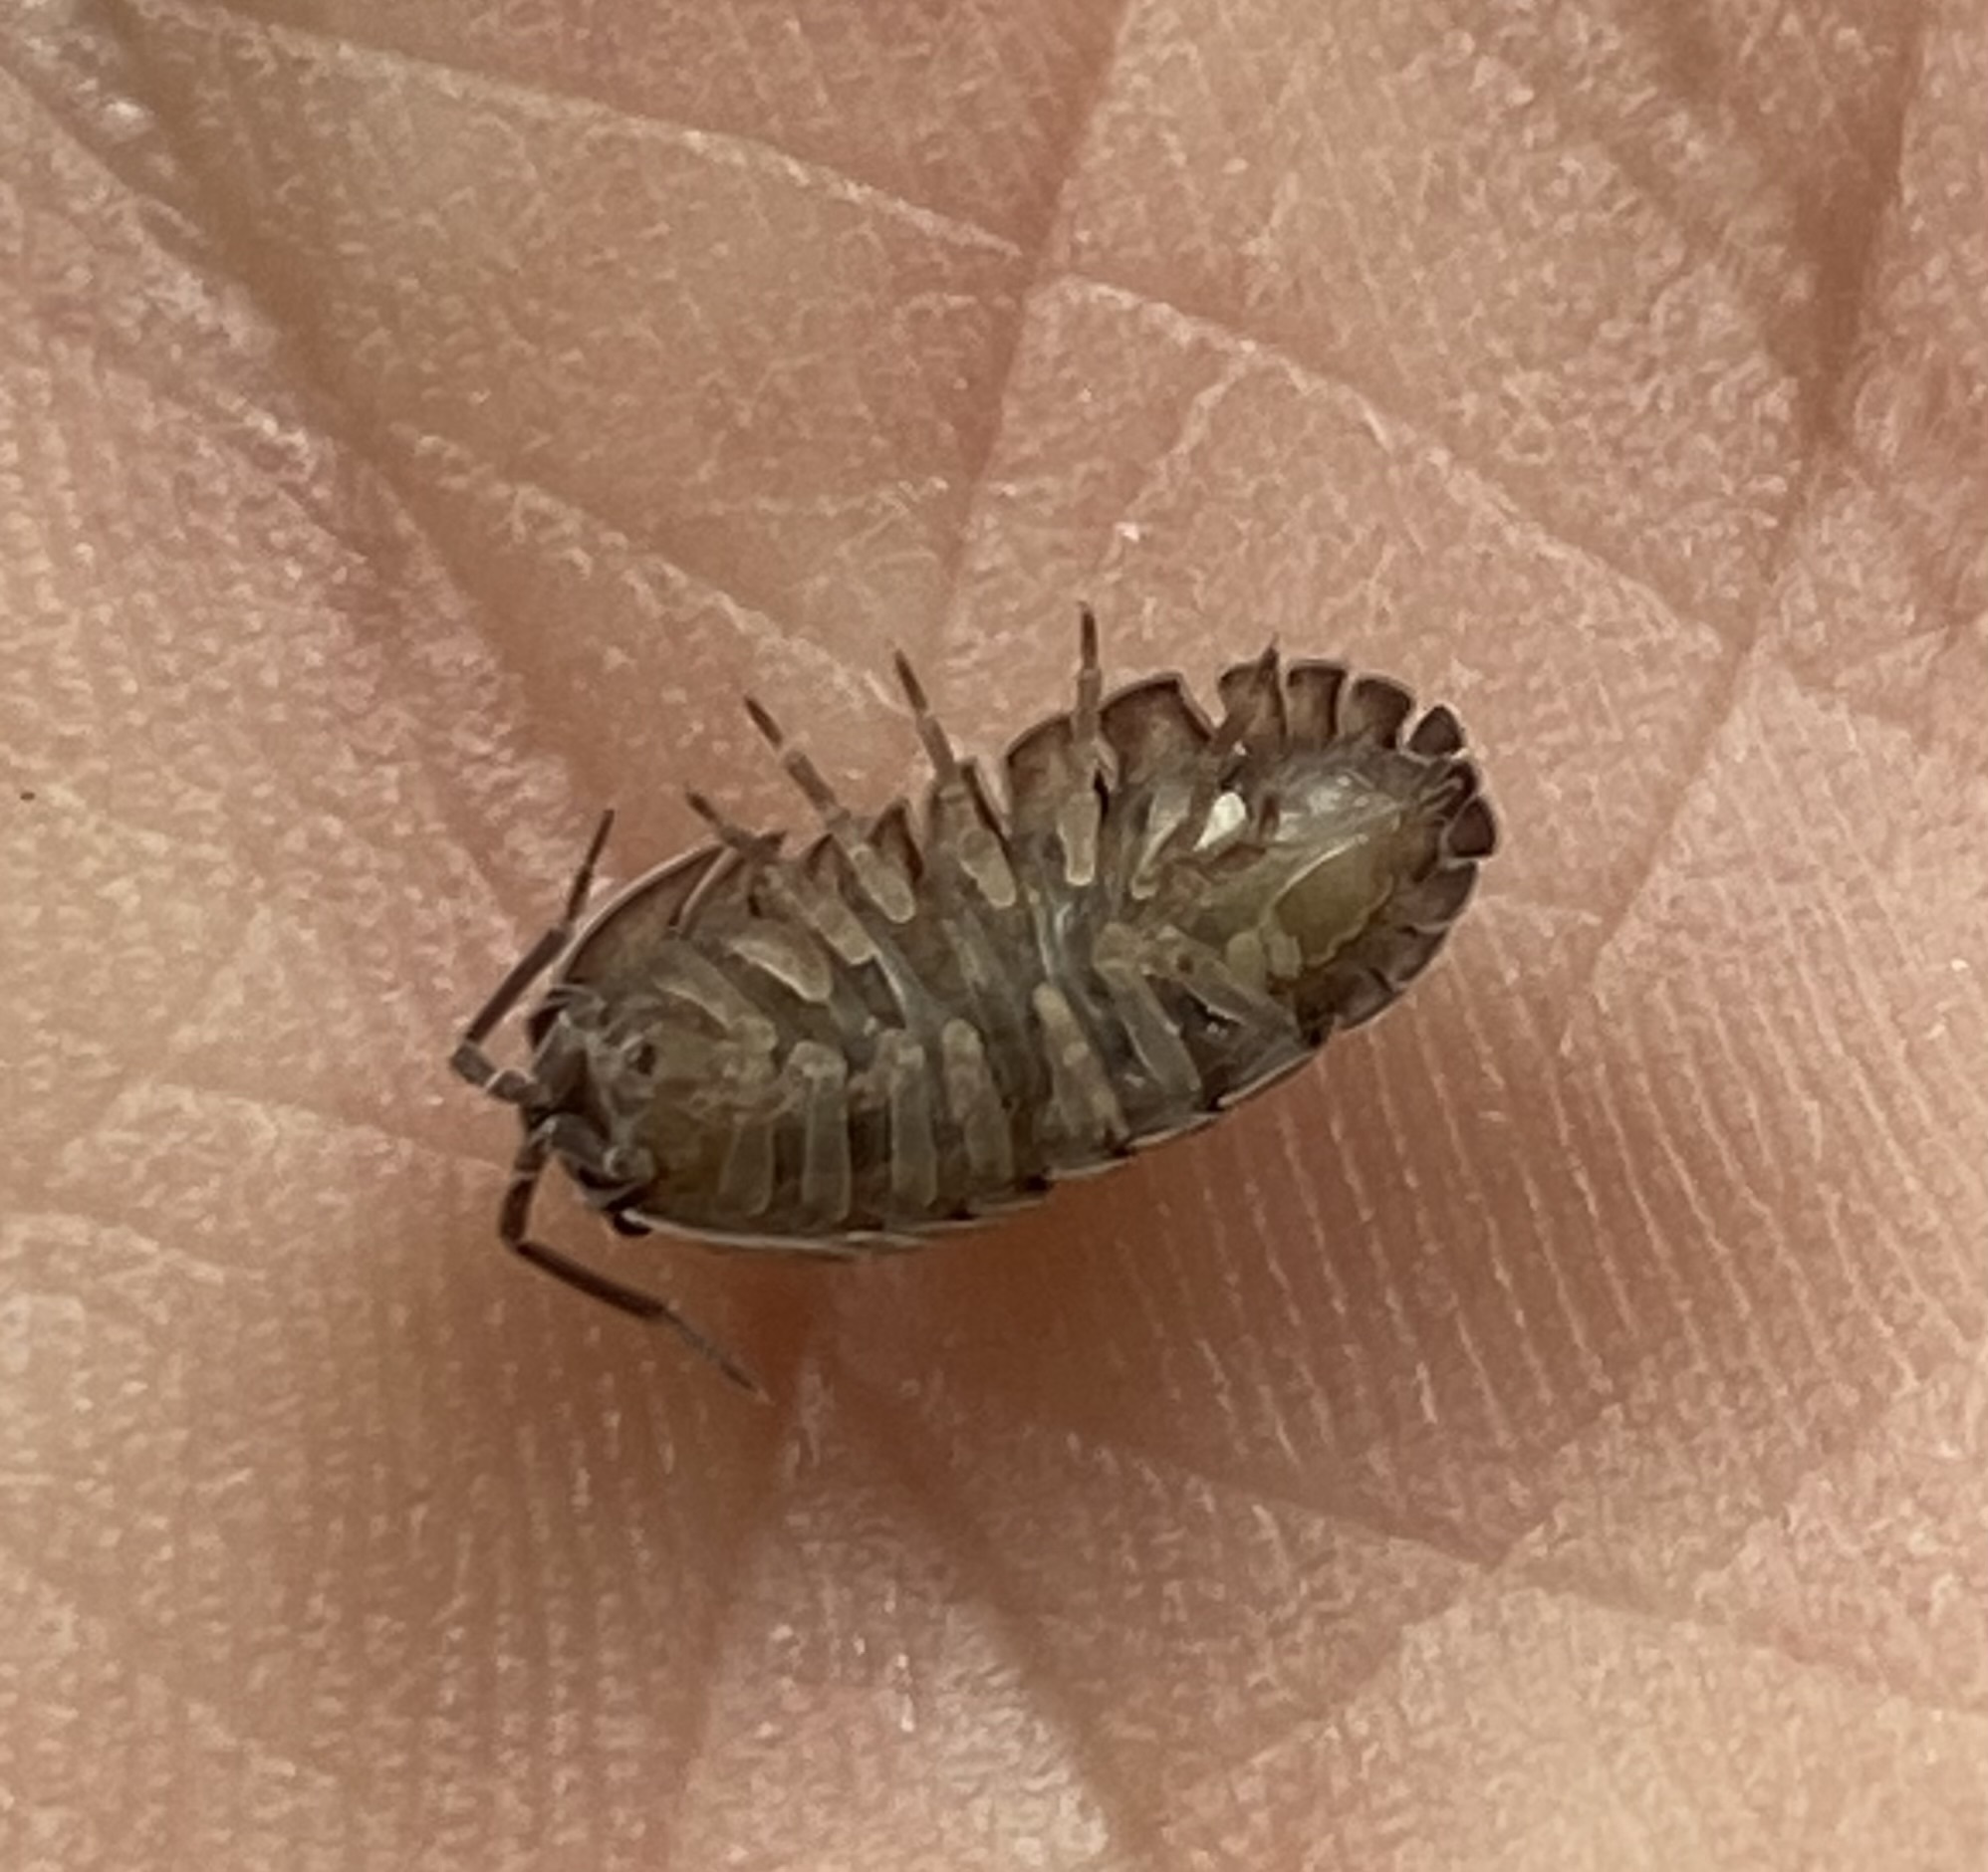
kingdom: Animalia
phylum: Arthropoda
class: Malacostraca
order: Isopoda
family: Armadillidiidae
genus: Armadillidium
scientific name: Armadillidium nasatum
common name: Isopod
